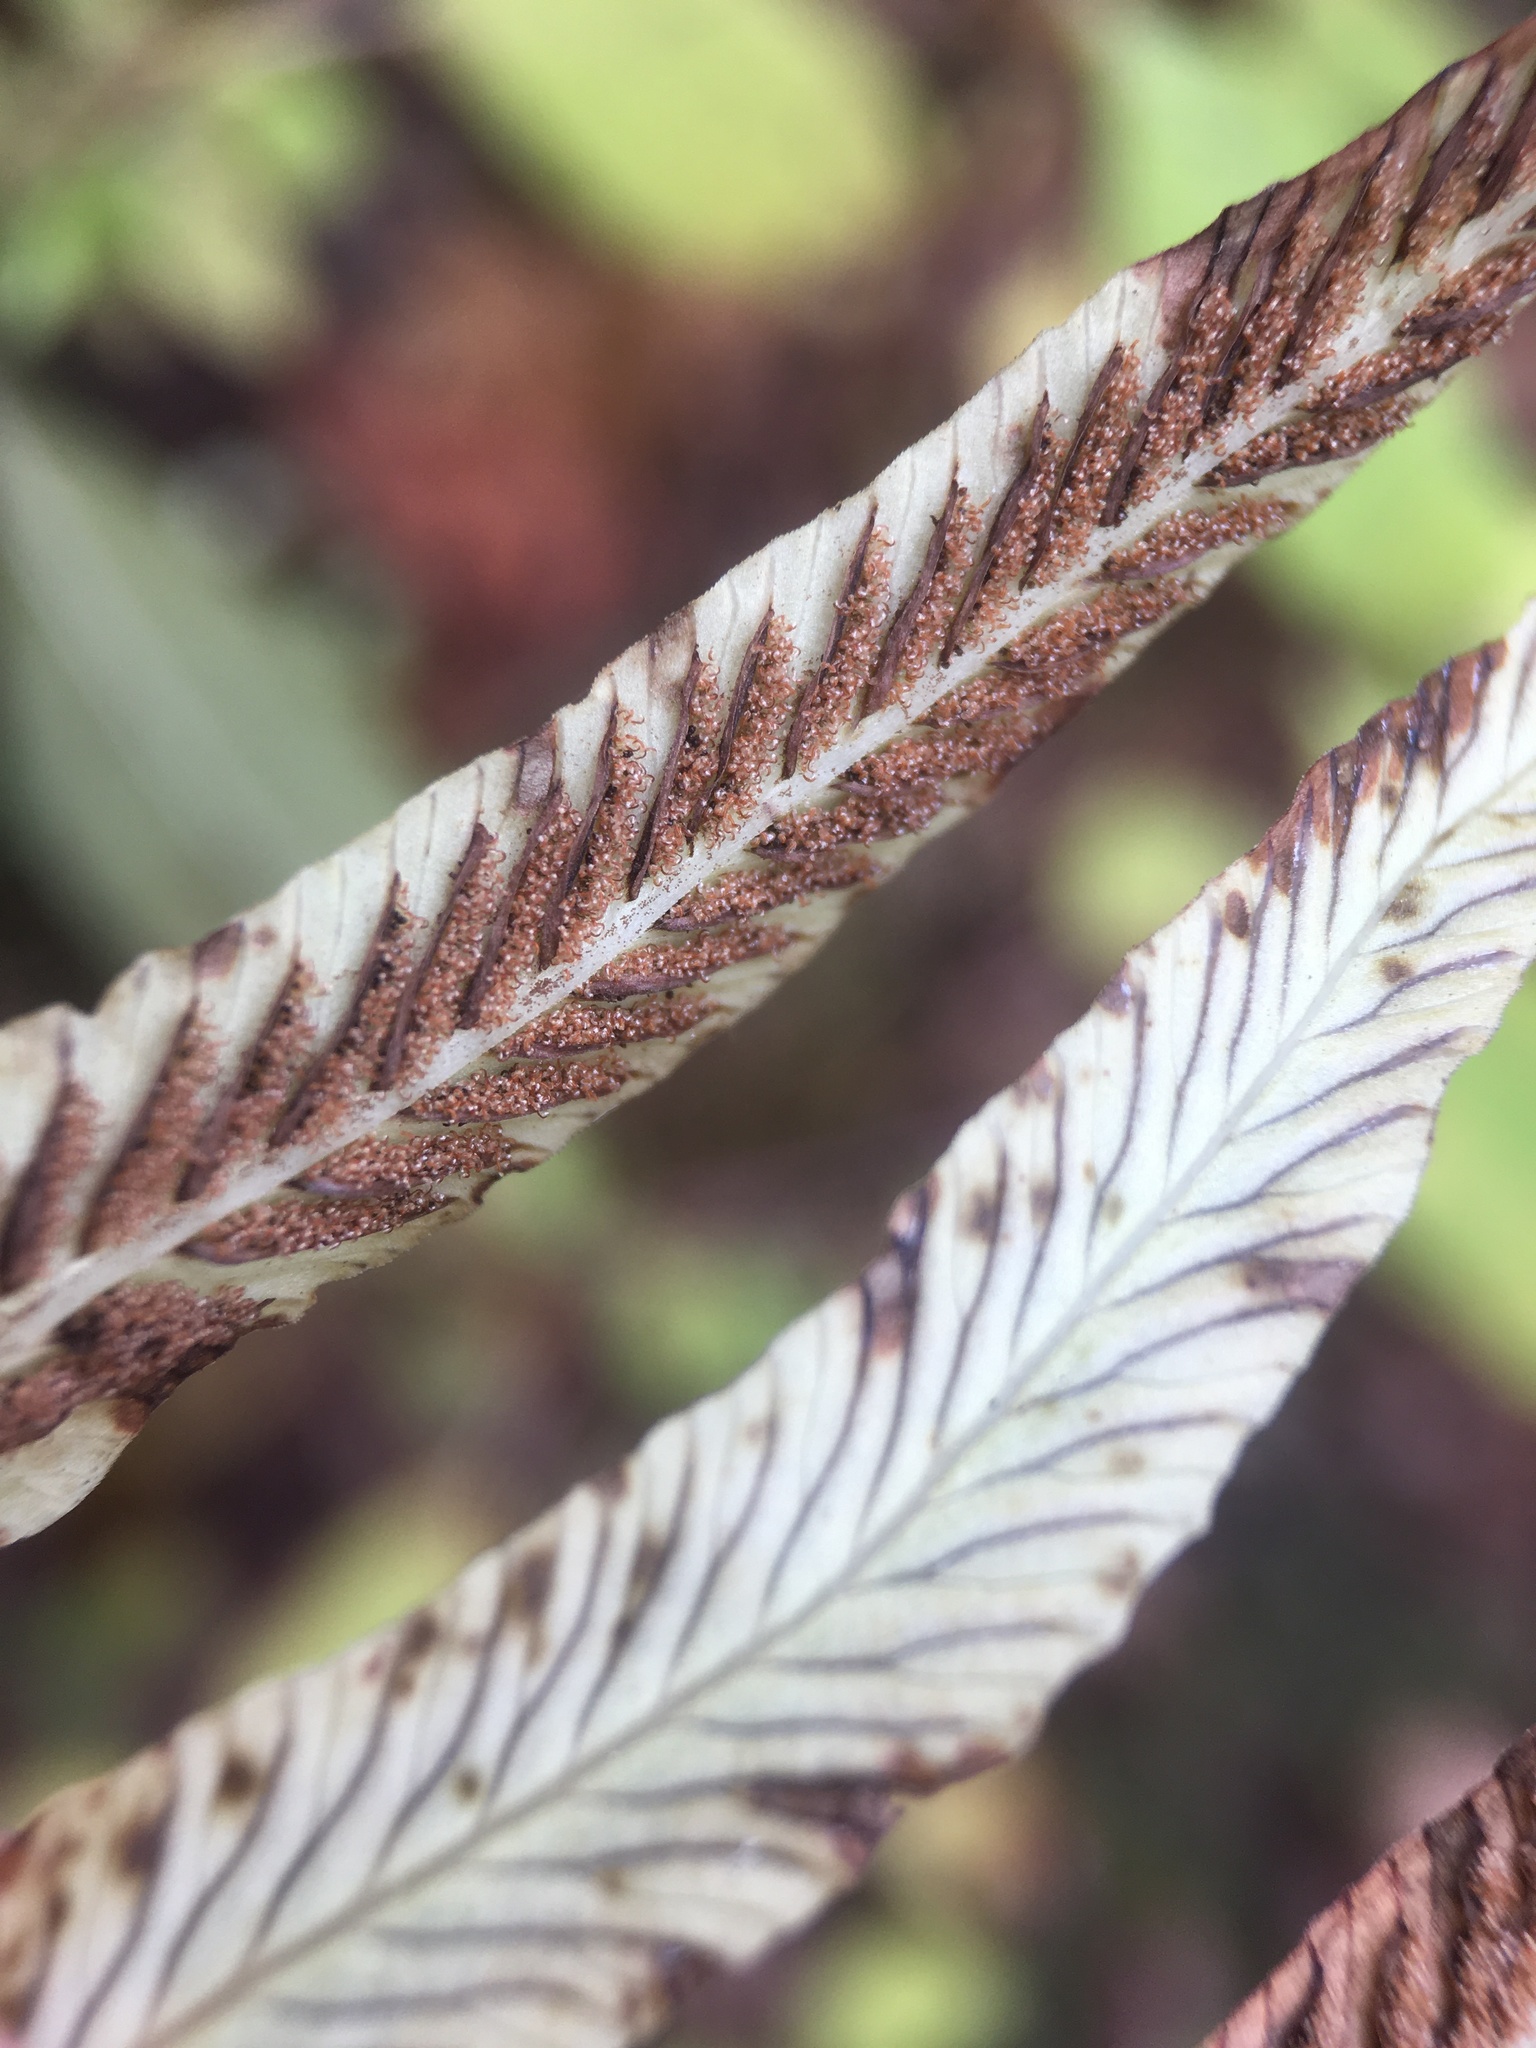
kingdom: Plantae
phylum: Tracheophyta
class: Polypodiopsida
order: Polypodiales
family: Diplaziopsidaceae
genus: Homalosorus
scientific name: Homalosorus pycnocarpos
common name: Glade fern
